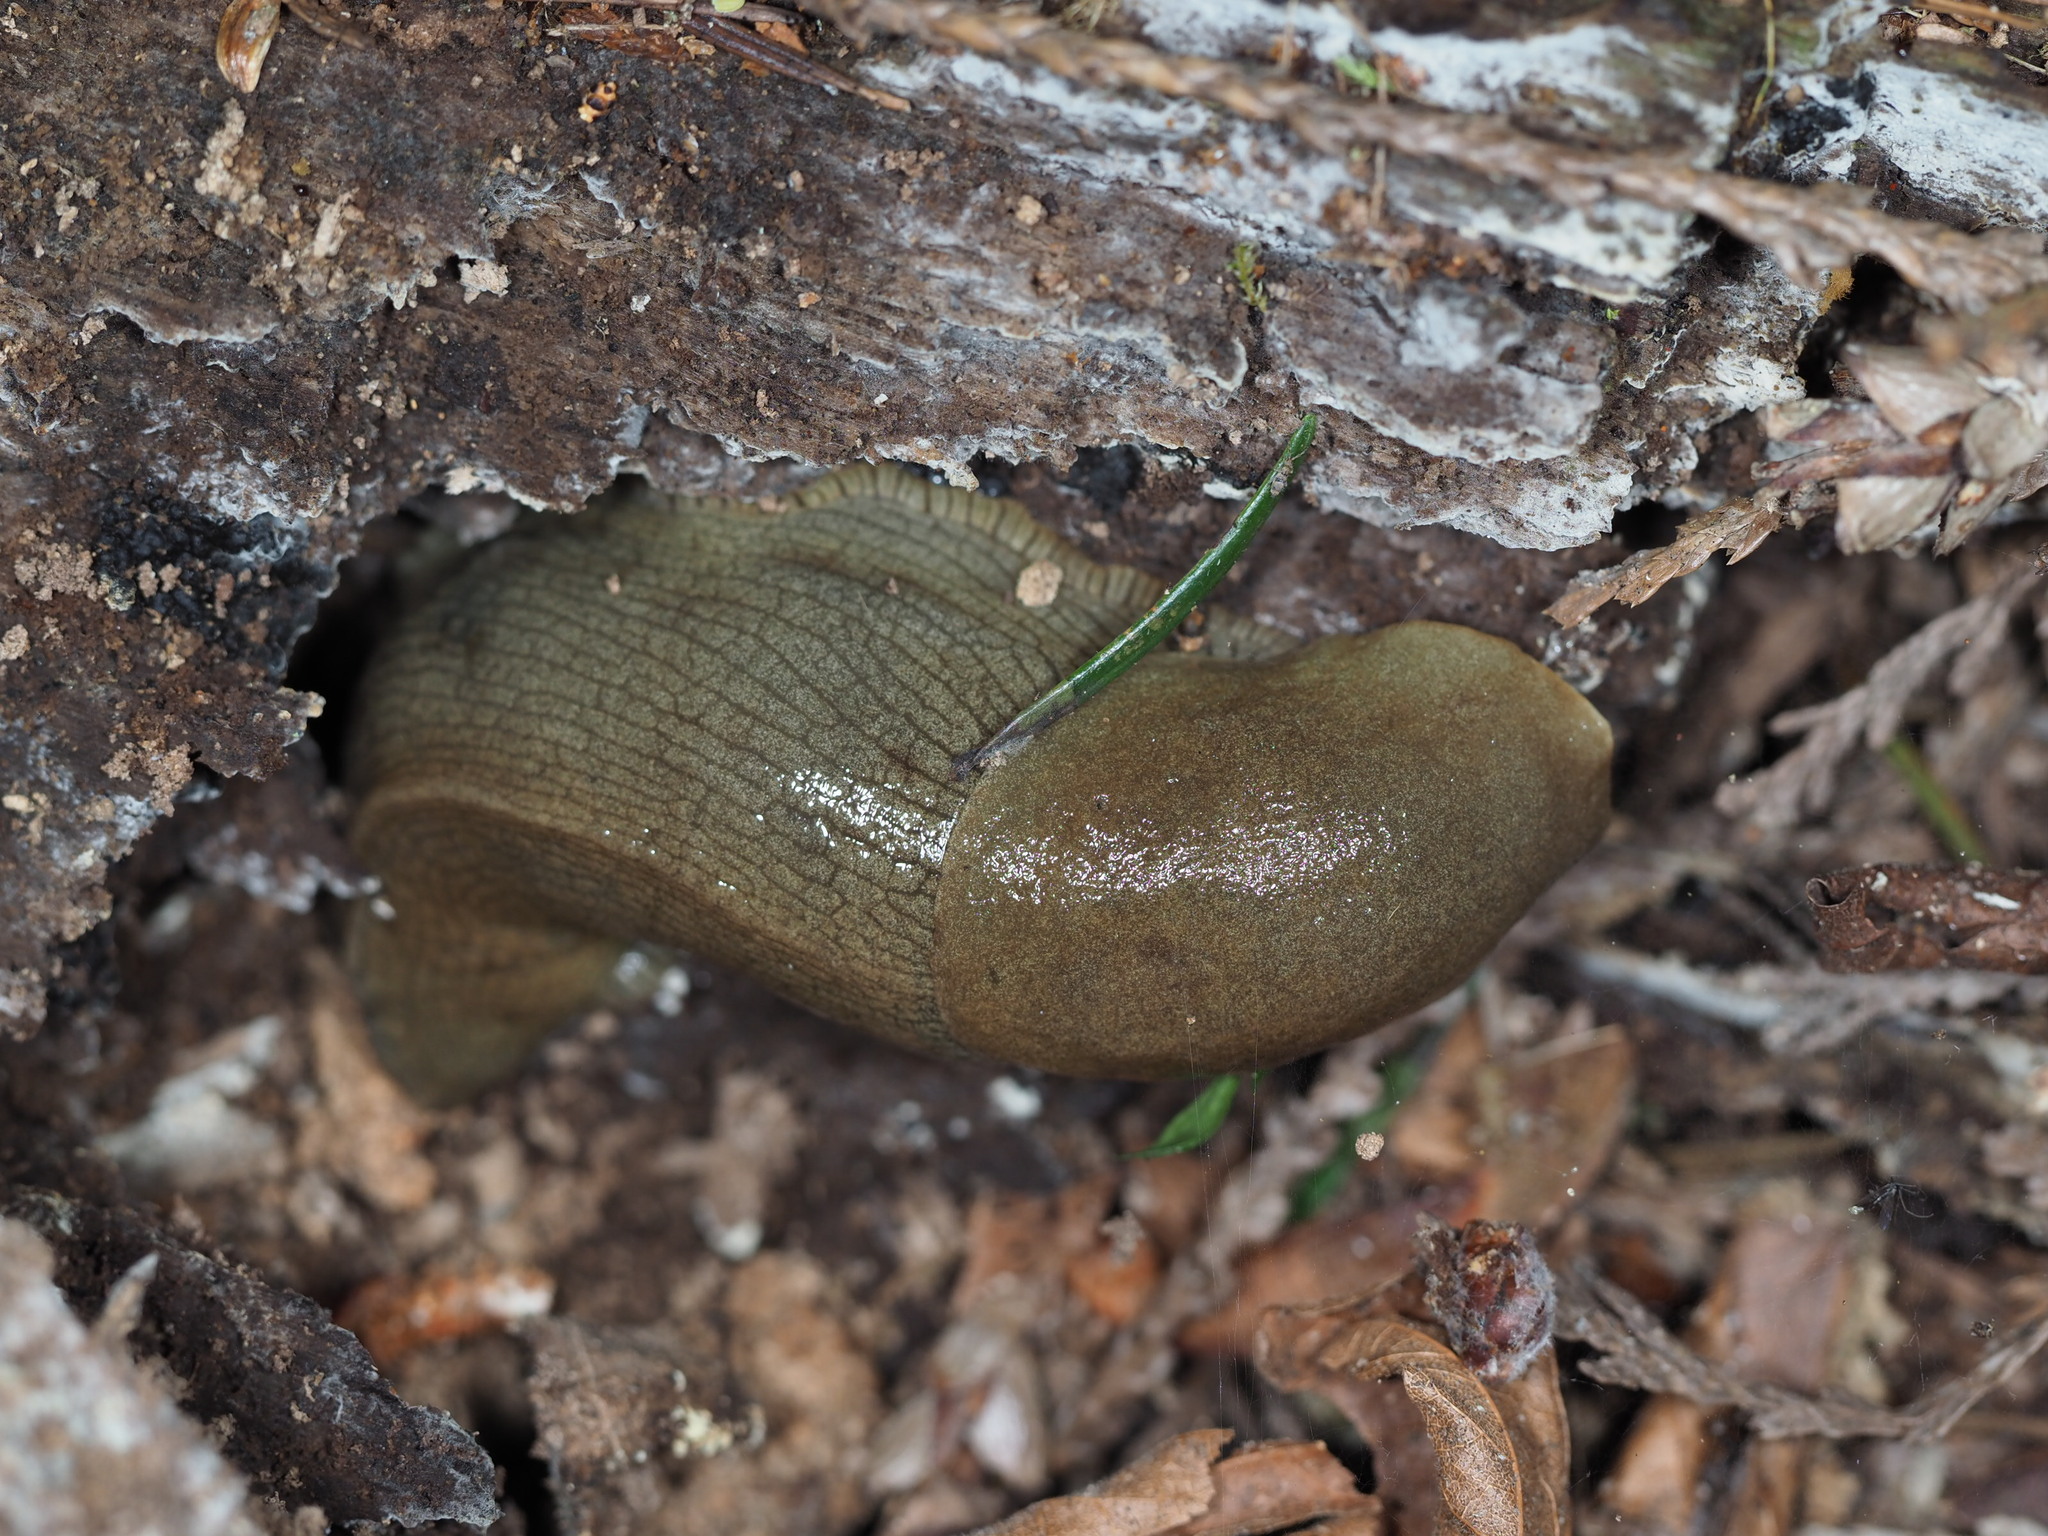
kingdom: Animalia
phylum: Mollusca
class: Gastropoda
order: Stylommatophora
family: Ariolimacidae
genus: Ariolimax
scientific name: Ariolimax columbianus
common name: Pacific banana slug
